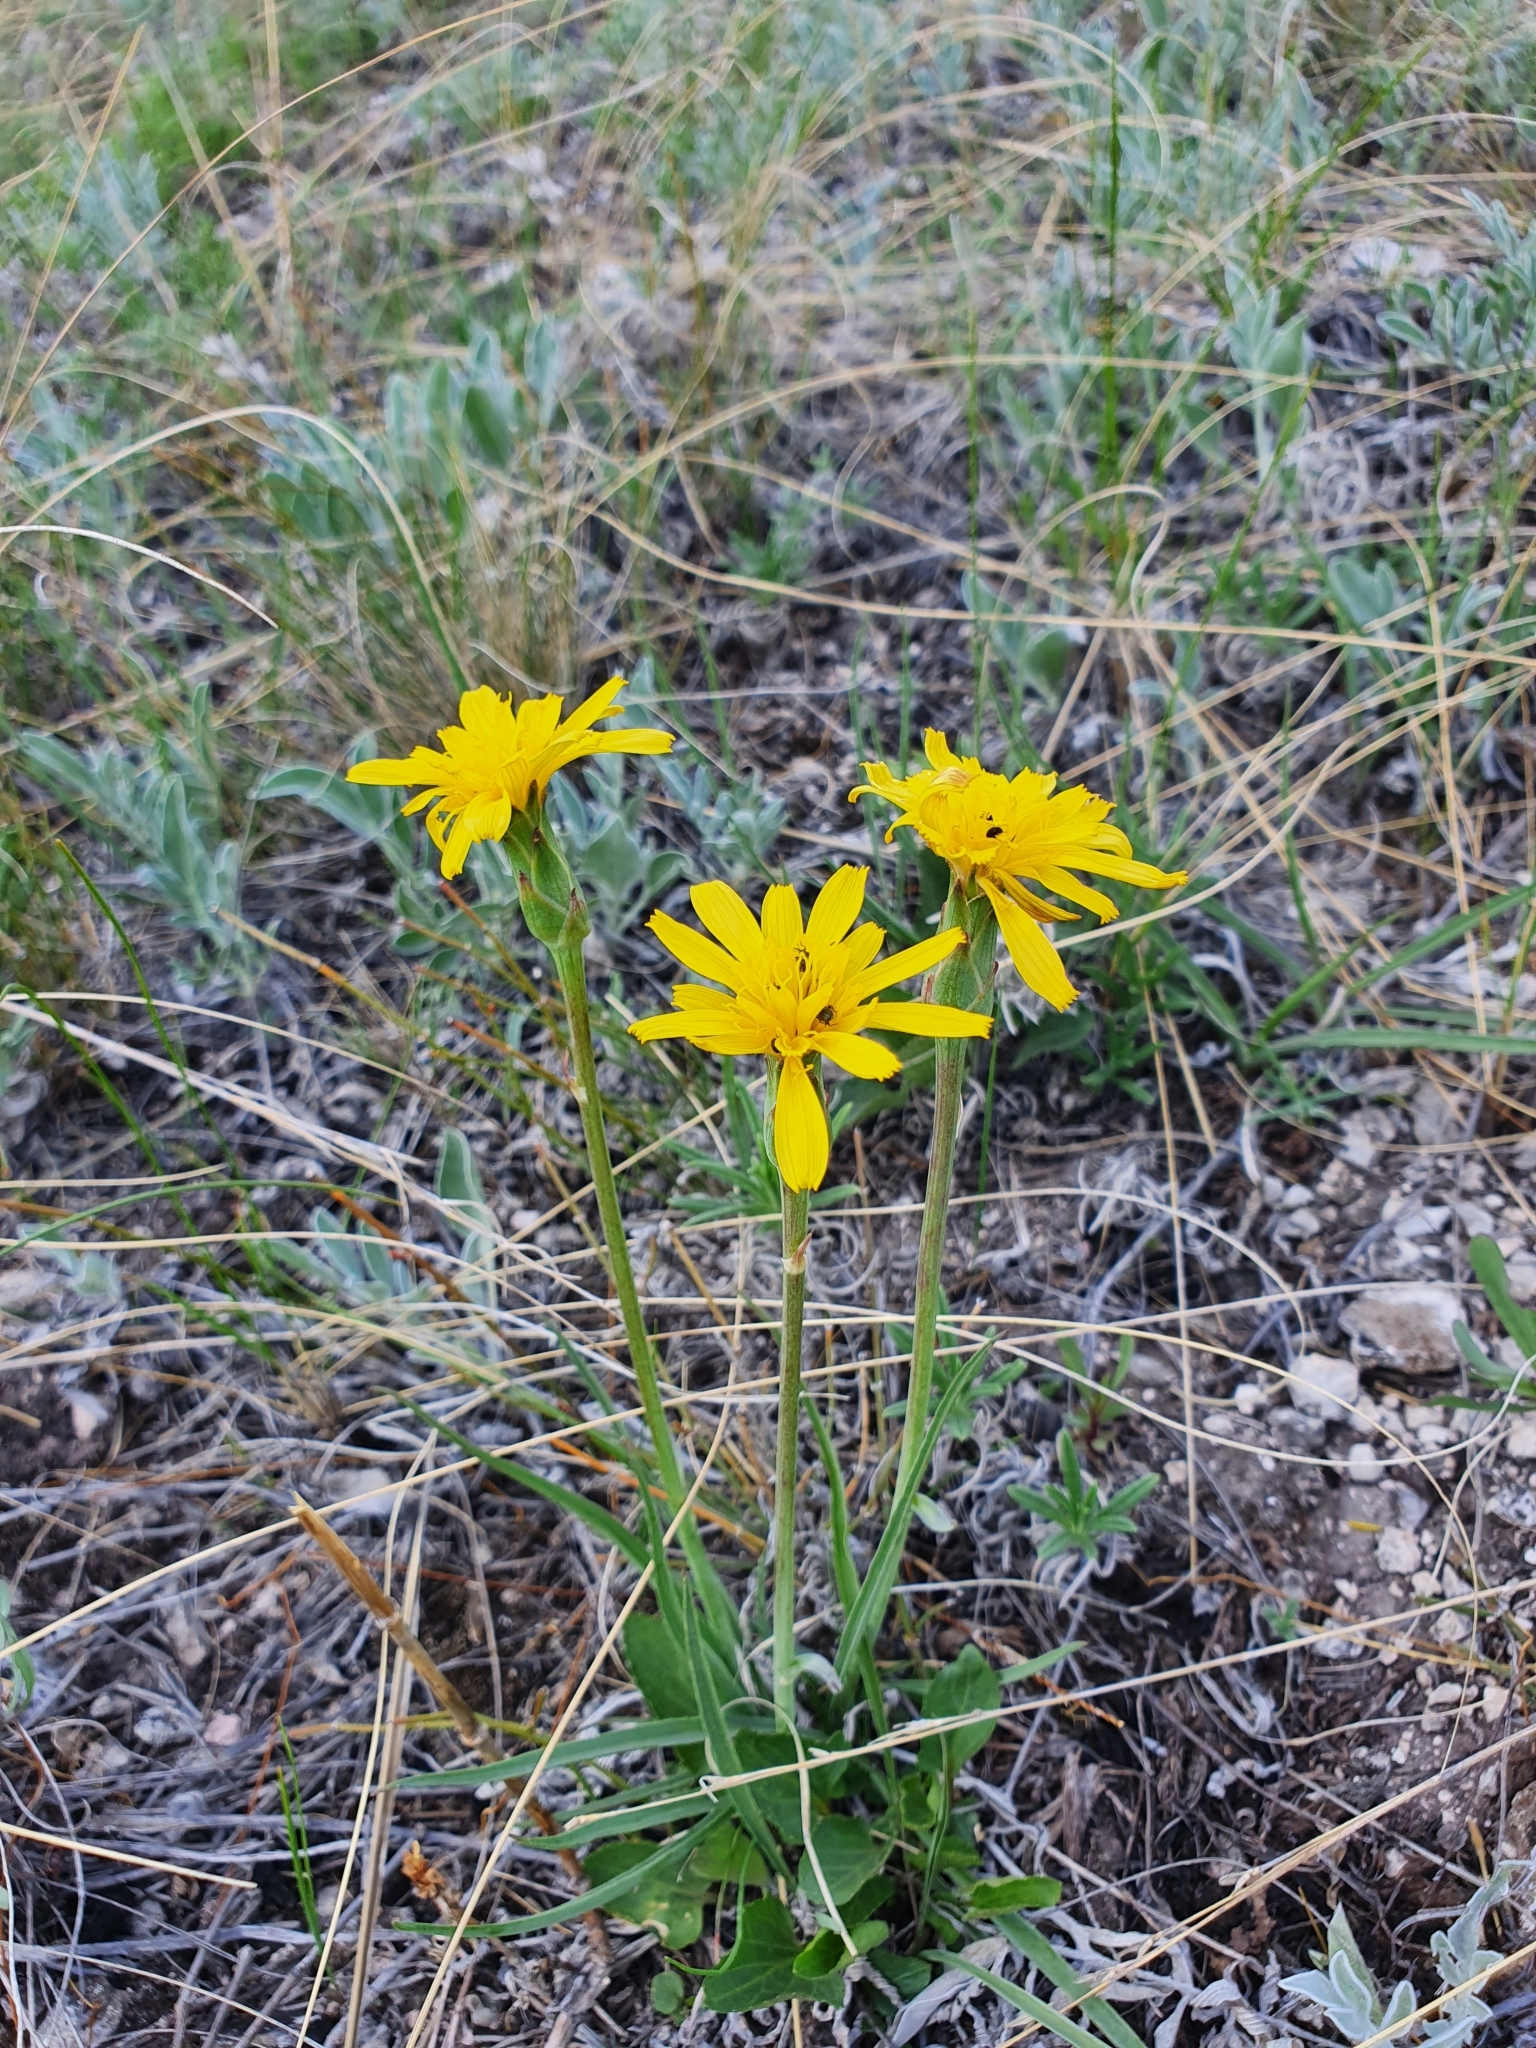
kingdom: Plantae
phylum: Tracheophyta
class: Magnoliopsida
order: Asterales
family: Asteraceae
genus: Takhtajaniantha
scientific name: Takhtajaniantha austriaca
